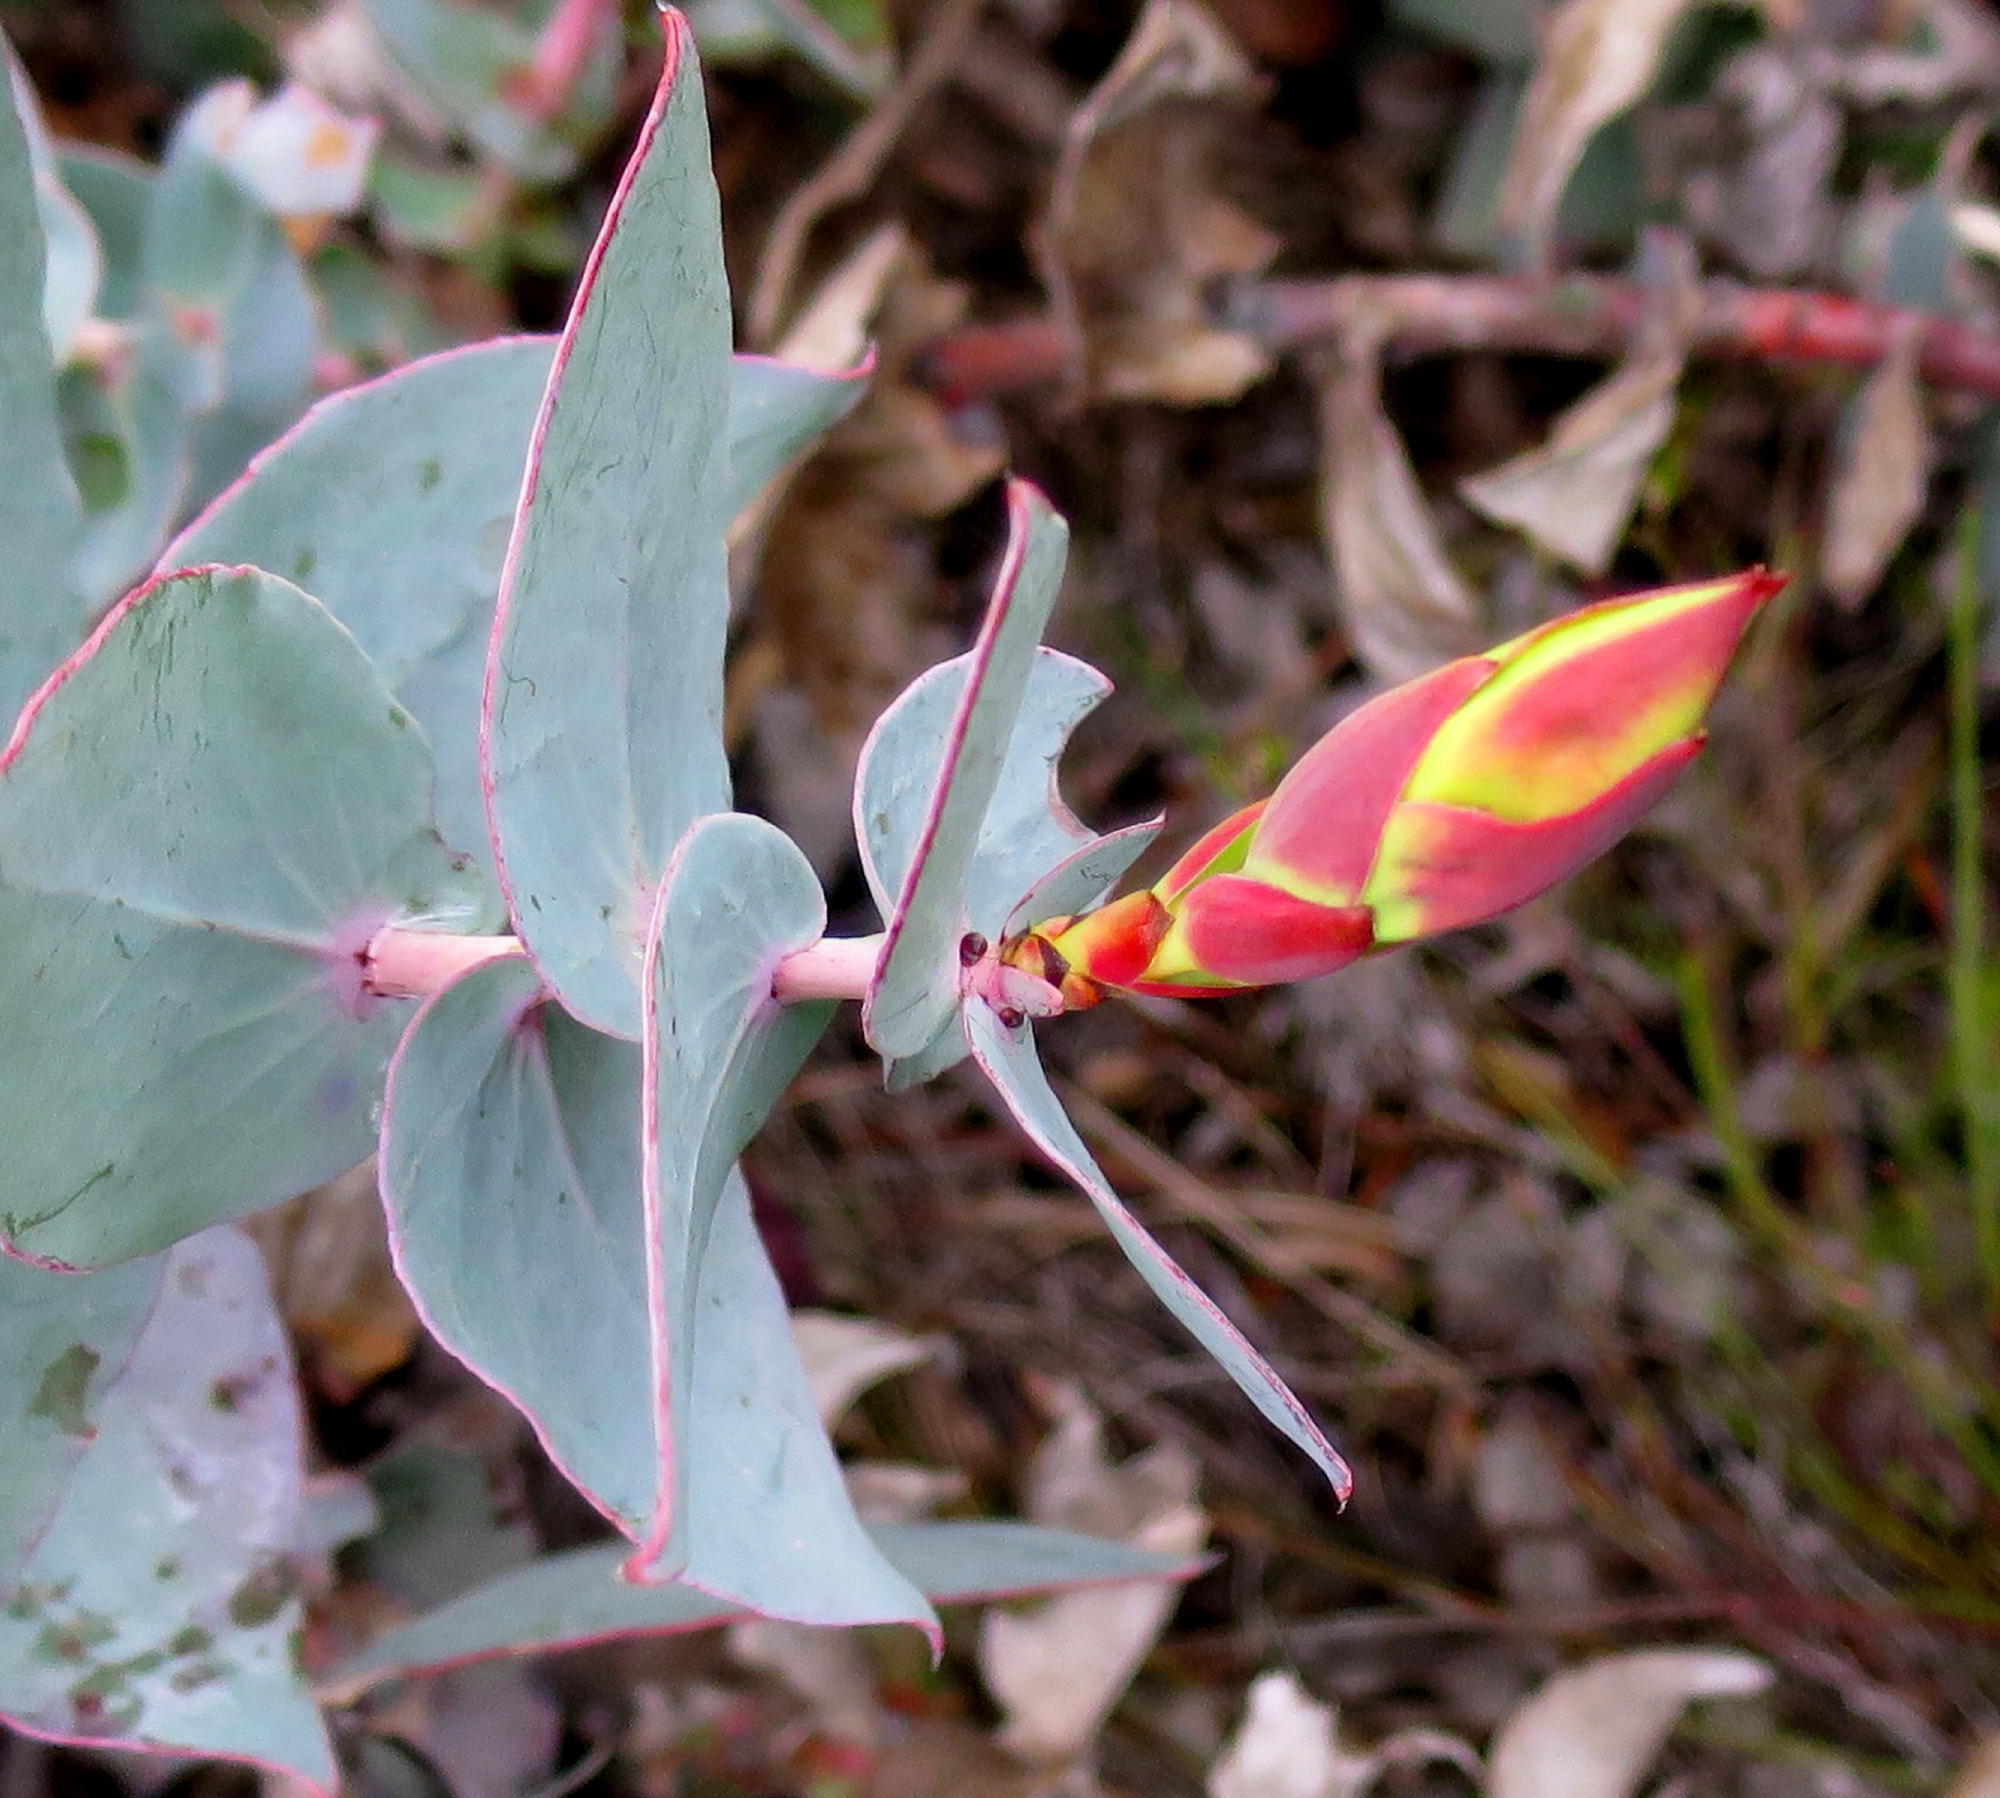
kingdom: Plantae
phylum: Tracheophyta
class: Magnoliopsida
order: Proteales
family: Proteaceae
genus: Protea
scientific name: Protea amplexicaulis
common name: Clasping-leaf sugarbush
